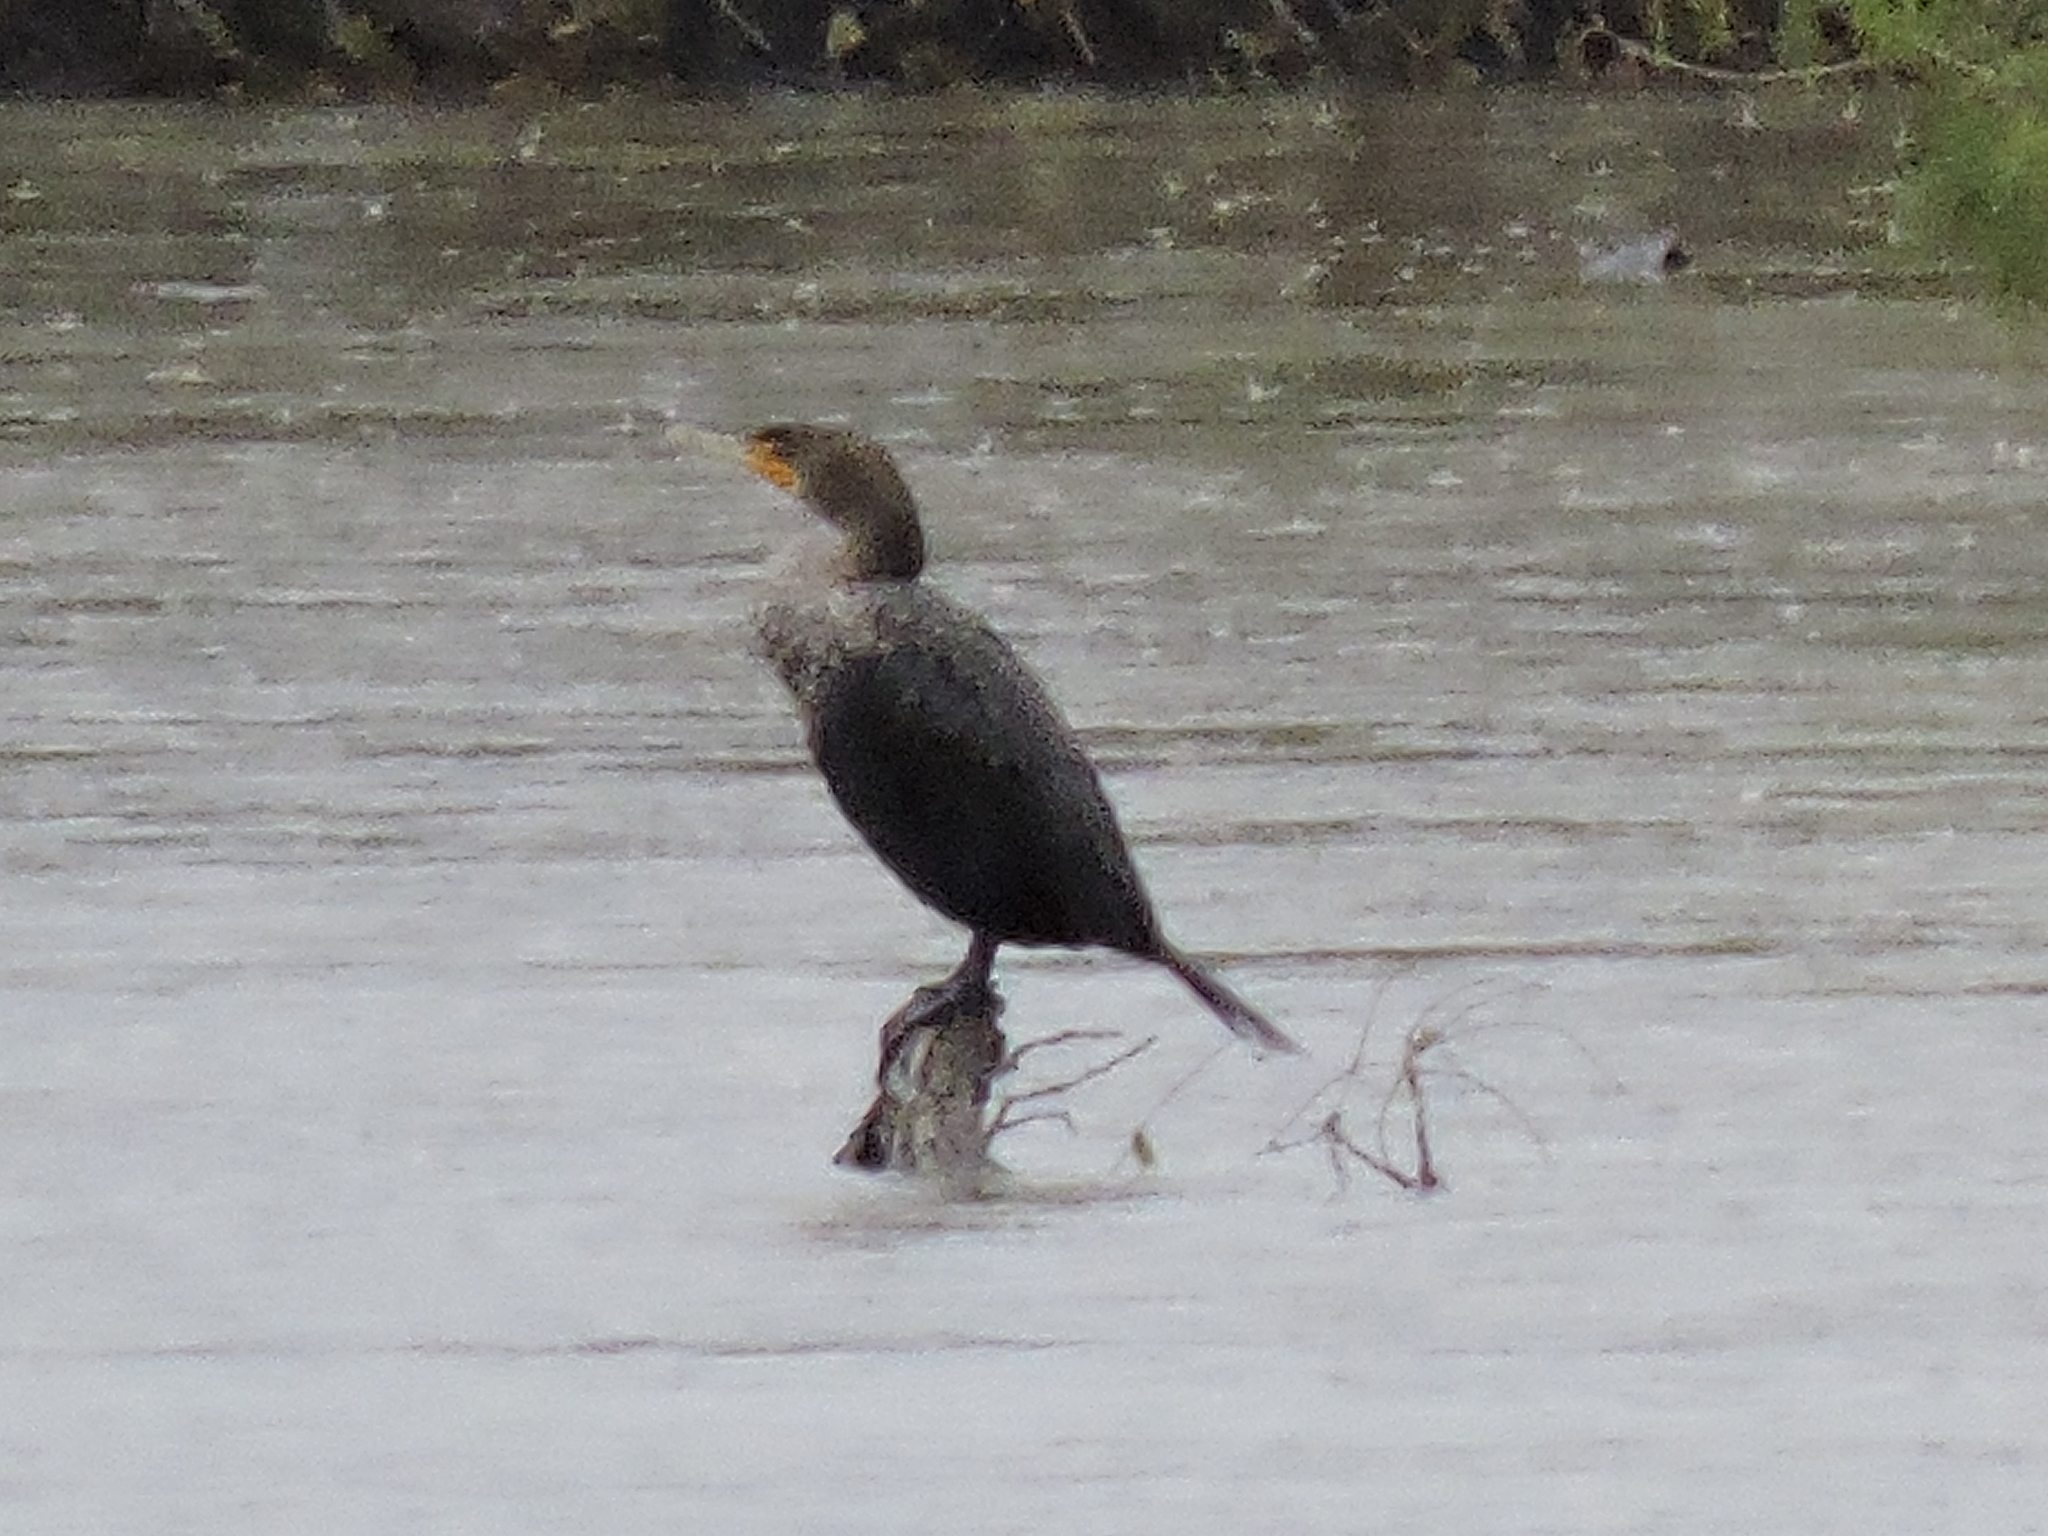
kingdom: Animalia
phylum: Chordata
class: Aves
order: Suliformes
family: Phalacrocoracidae
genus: Phalacrocorax
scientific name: Phalacrocorax auritus
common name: Double-crested cormorant
